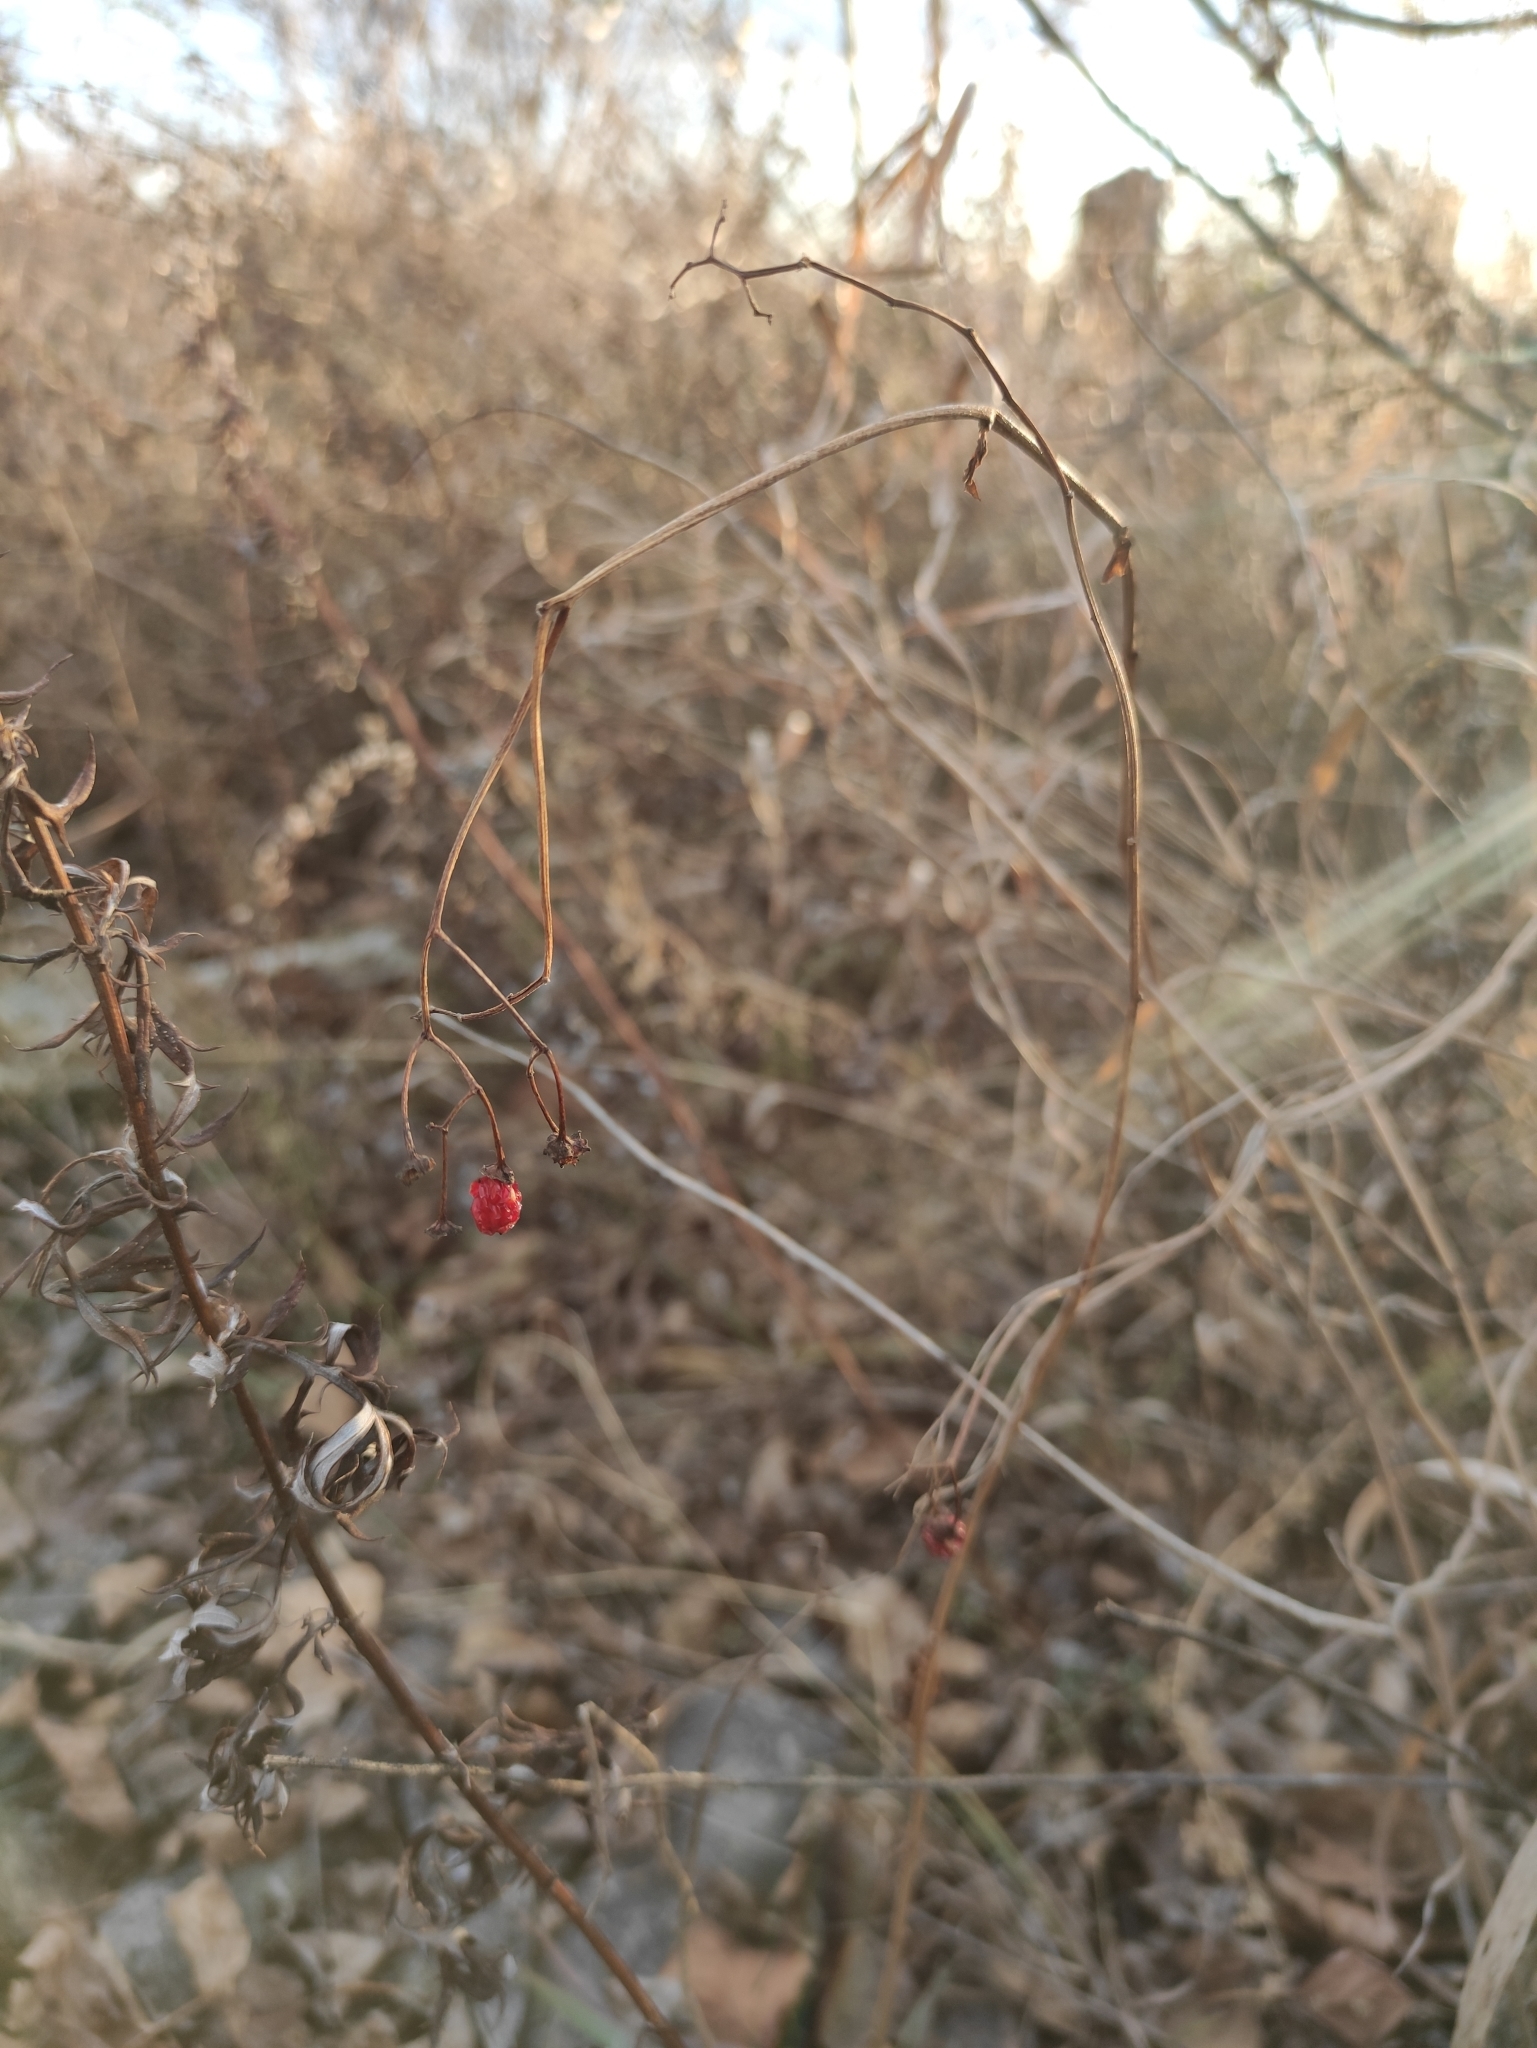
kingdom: Plantae
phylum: Tracheophyta
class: Magnoliopsida
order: Solanales
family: Solanaceae
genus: Solanum
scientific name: Solanum dulcamara
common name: Climbing nightshade
